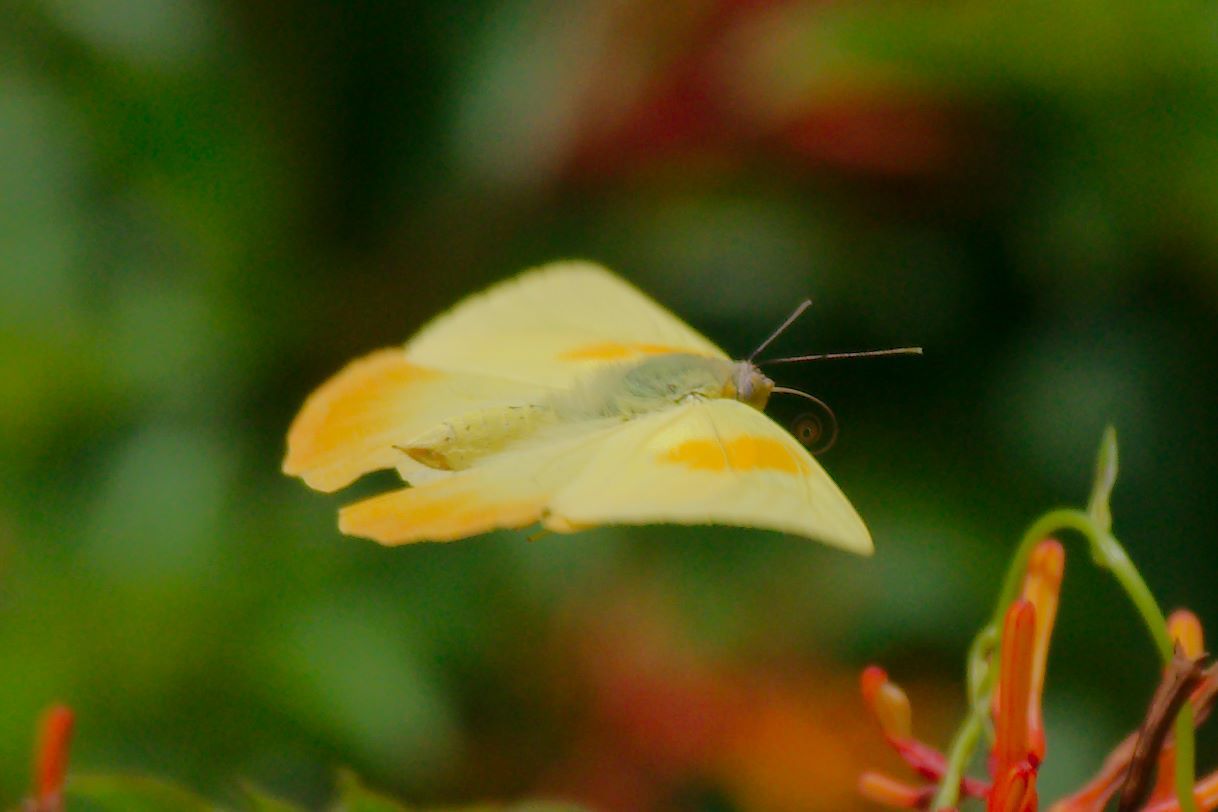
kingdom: Animalia
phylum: Arthropoda
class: Insecta
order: Lepidoptera
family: Pieridae
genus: Phoebis
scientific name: Phoebis philea
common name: Orange-barred giant sulphur
